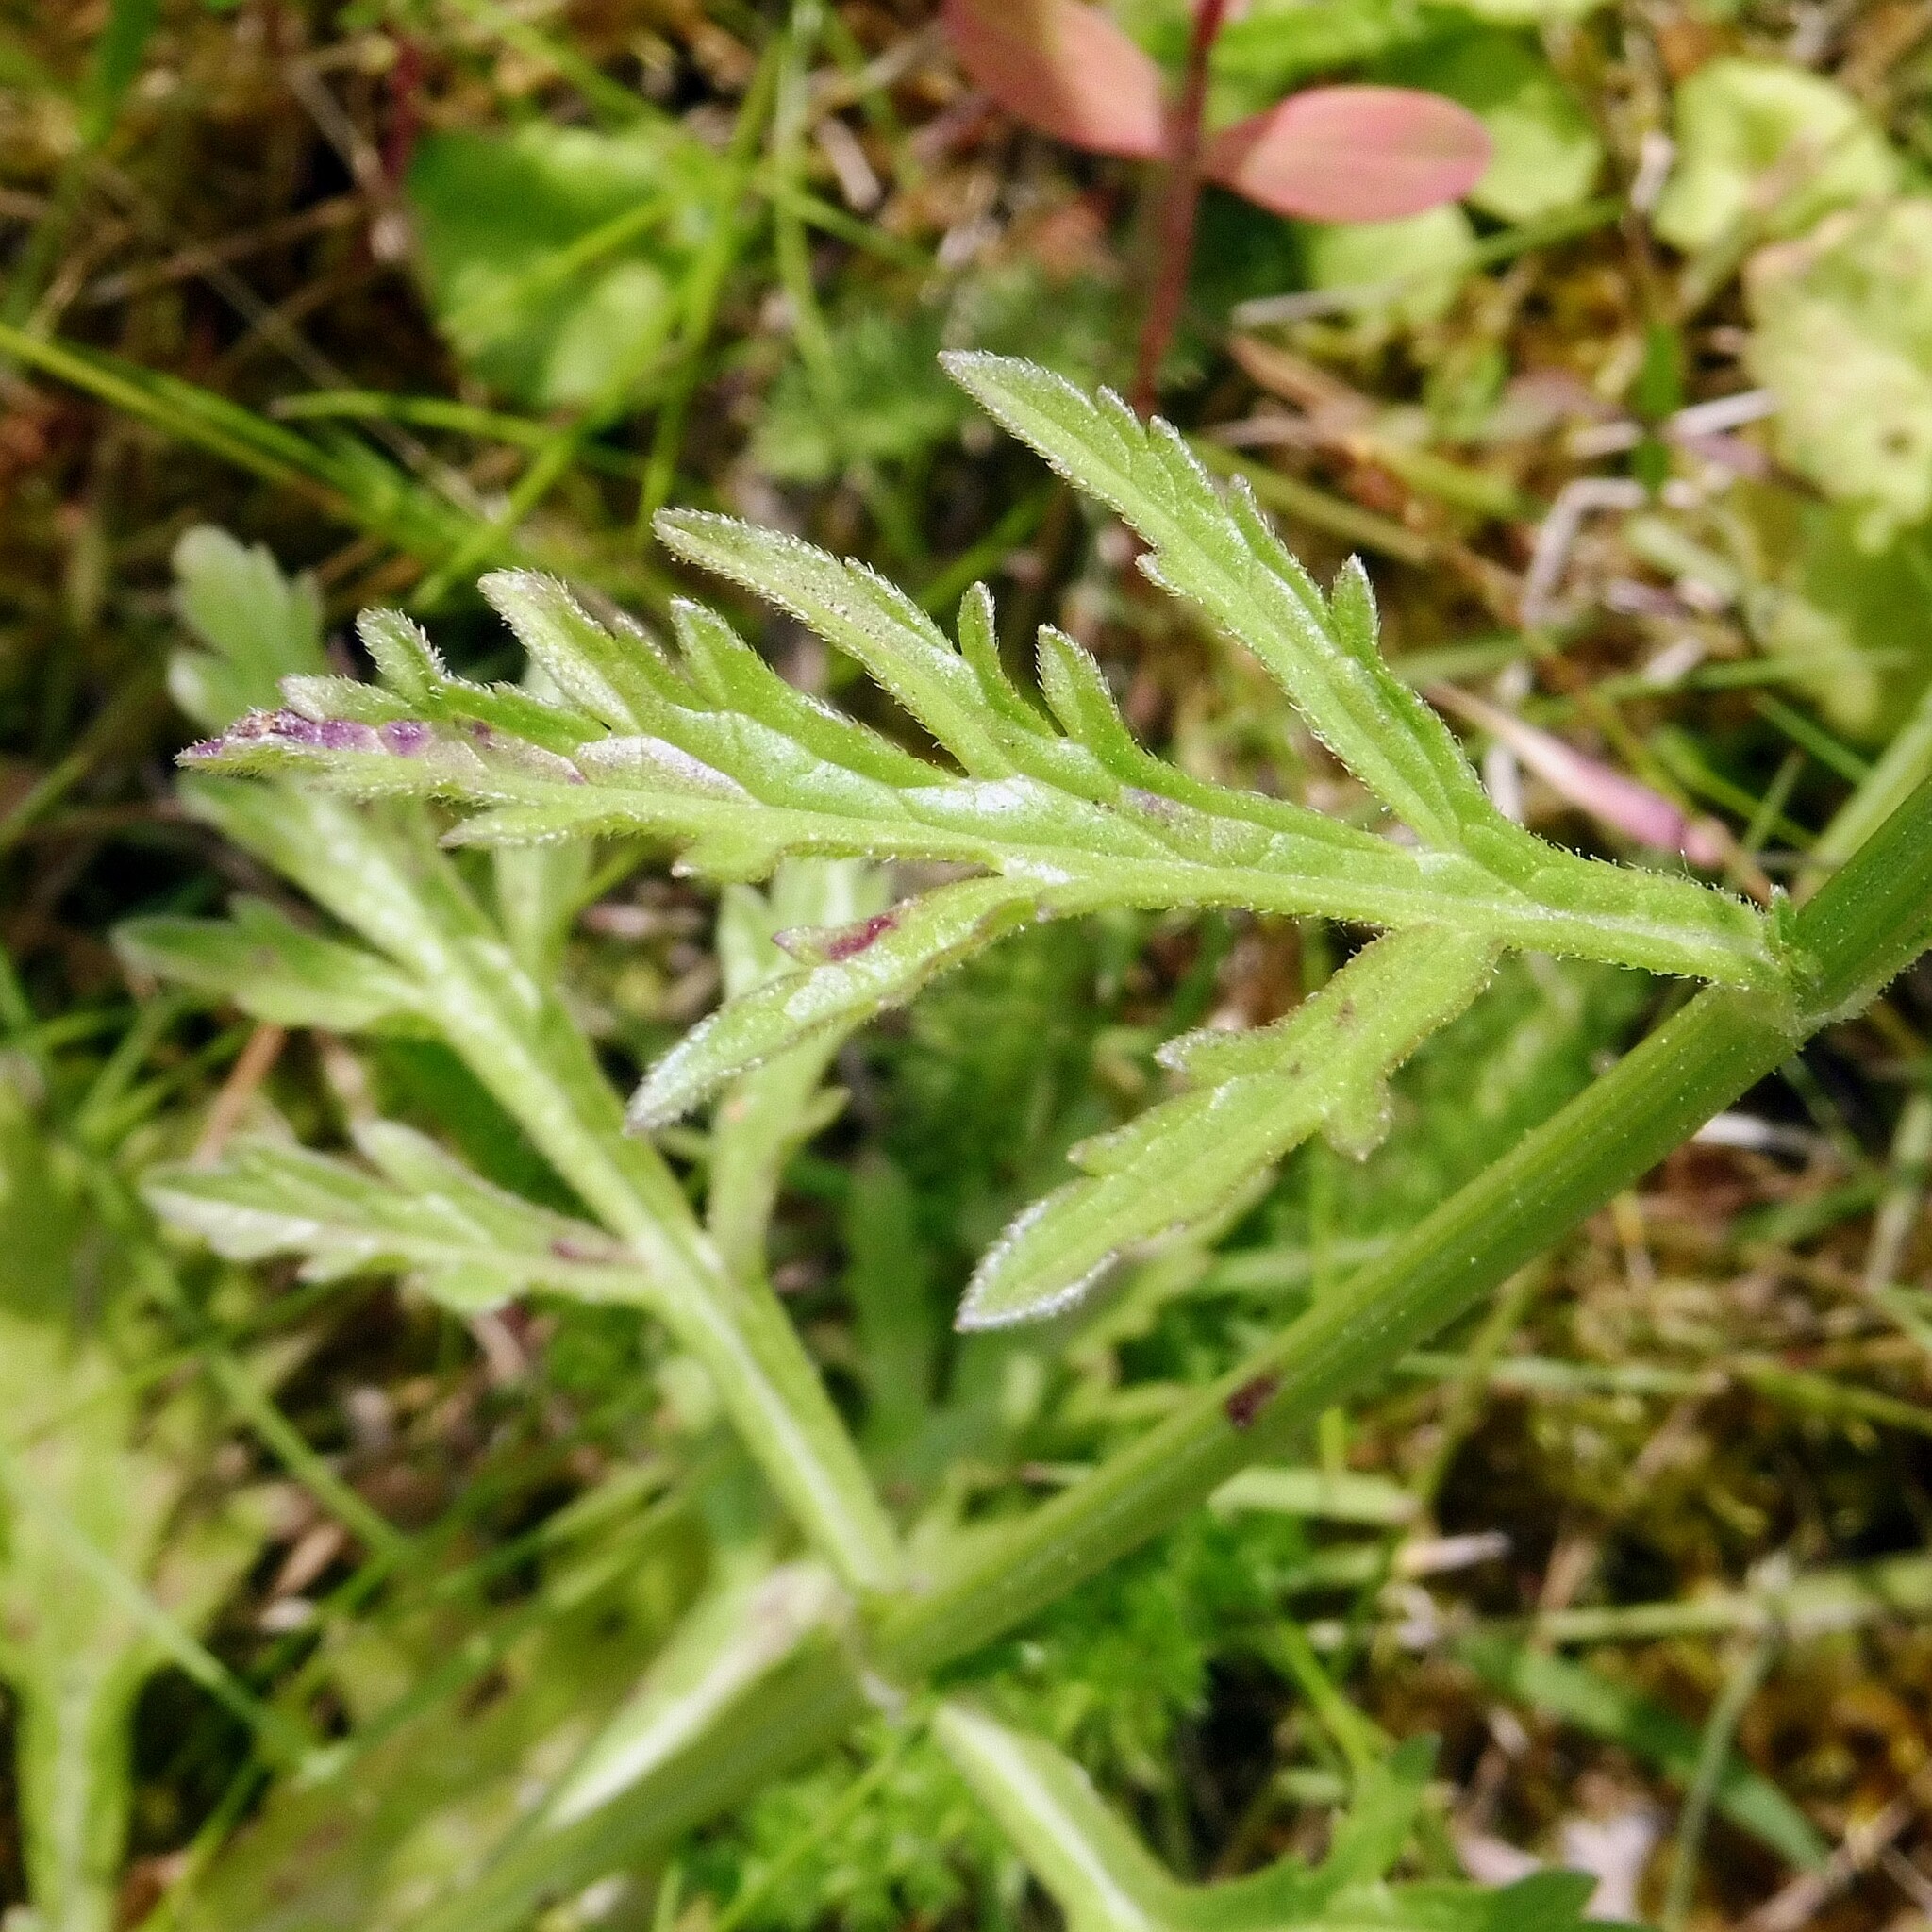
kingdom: Plantae
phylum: Tracheophyta
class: Magnoliopsida
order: Lamiales
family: Verbenaceae
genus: Verbena
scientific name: Verbena officinalis
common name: Vervain
